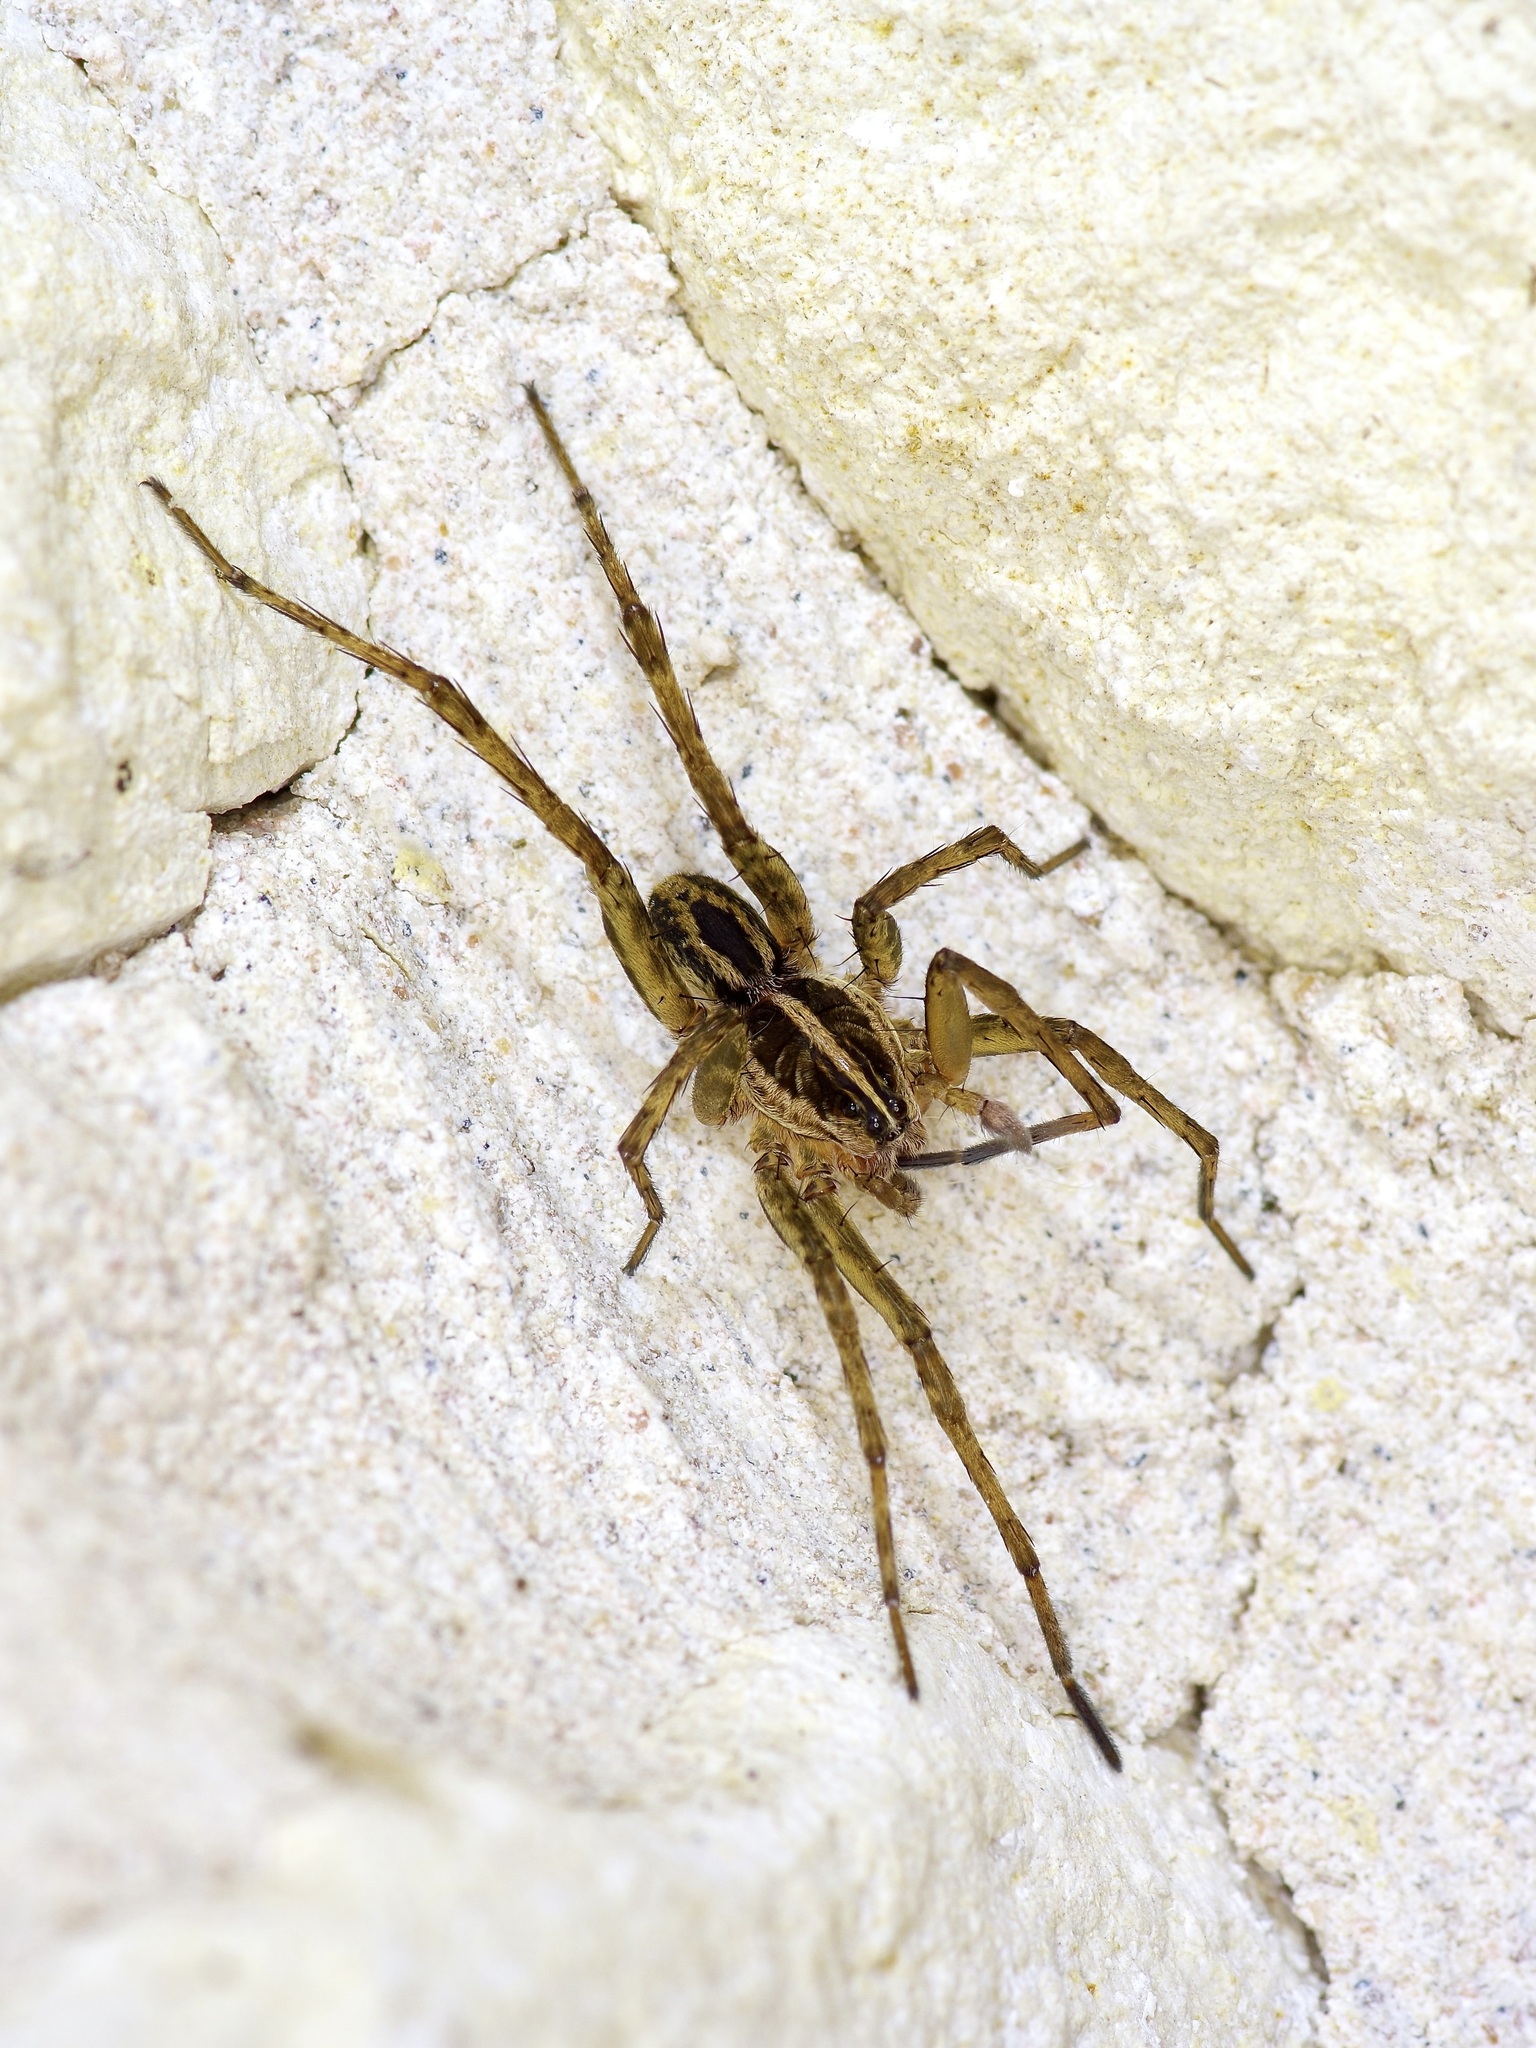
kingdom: Animalia
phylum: Arthropoda
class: Arachnida
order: Araneae
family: Lycosidae
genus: Tigrosa
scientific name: Tigrosa annexa
